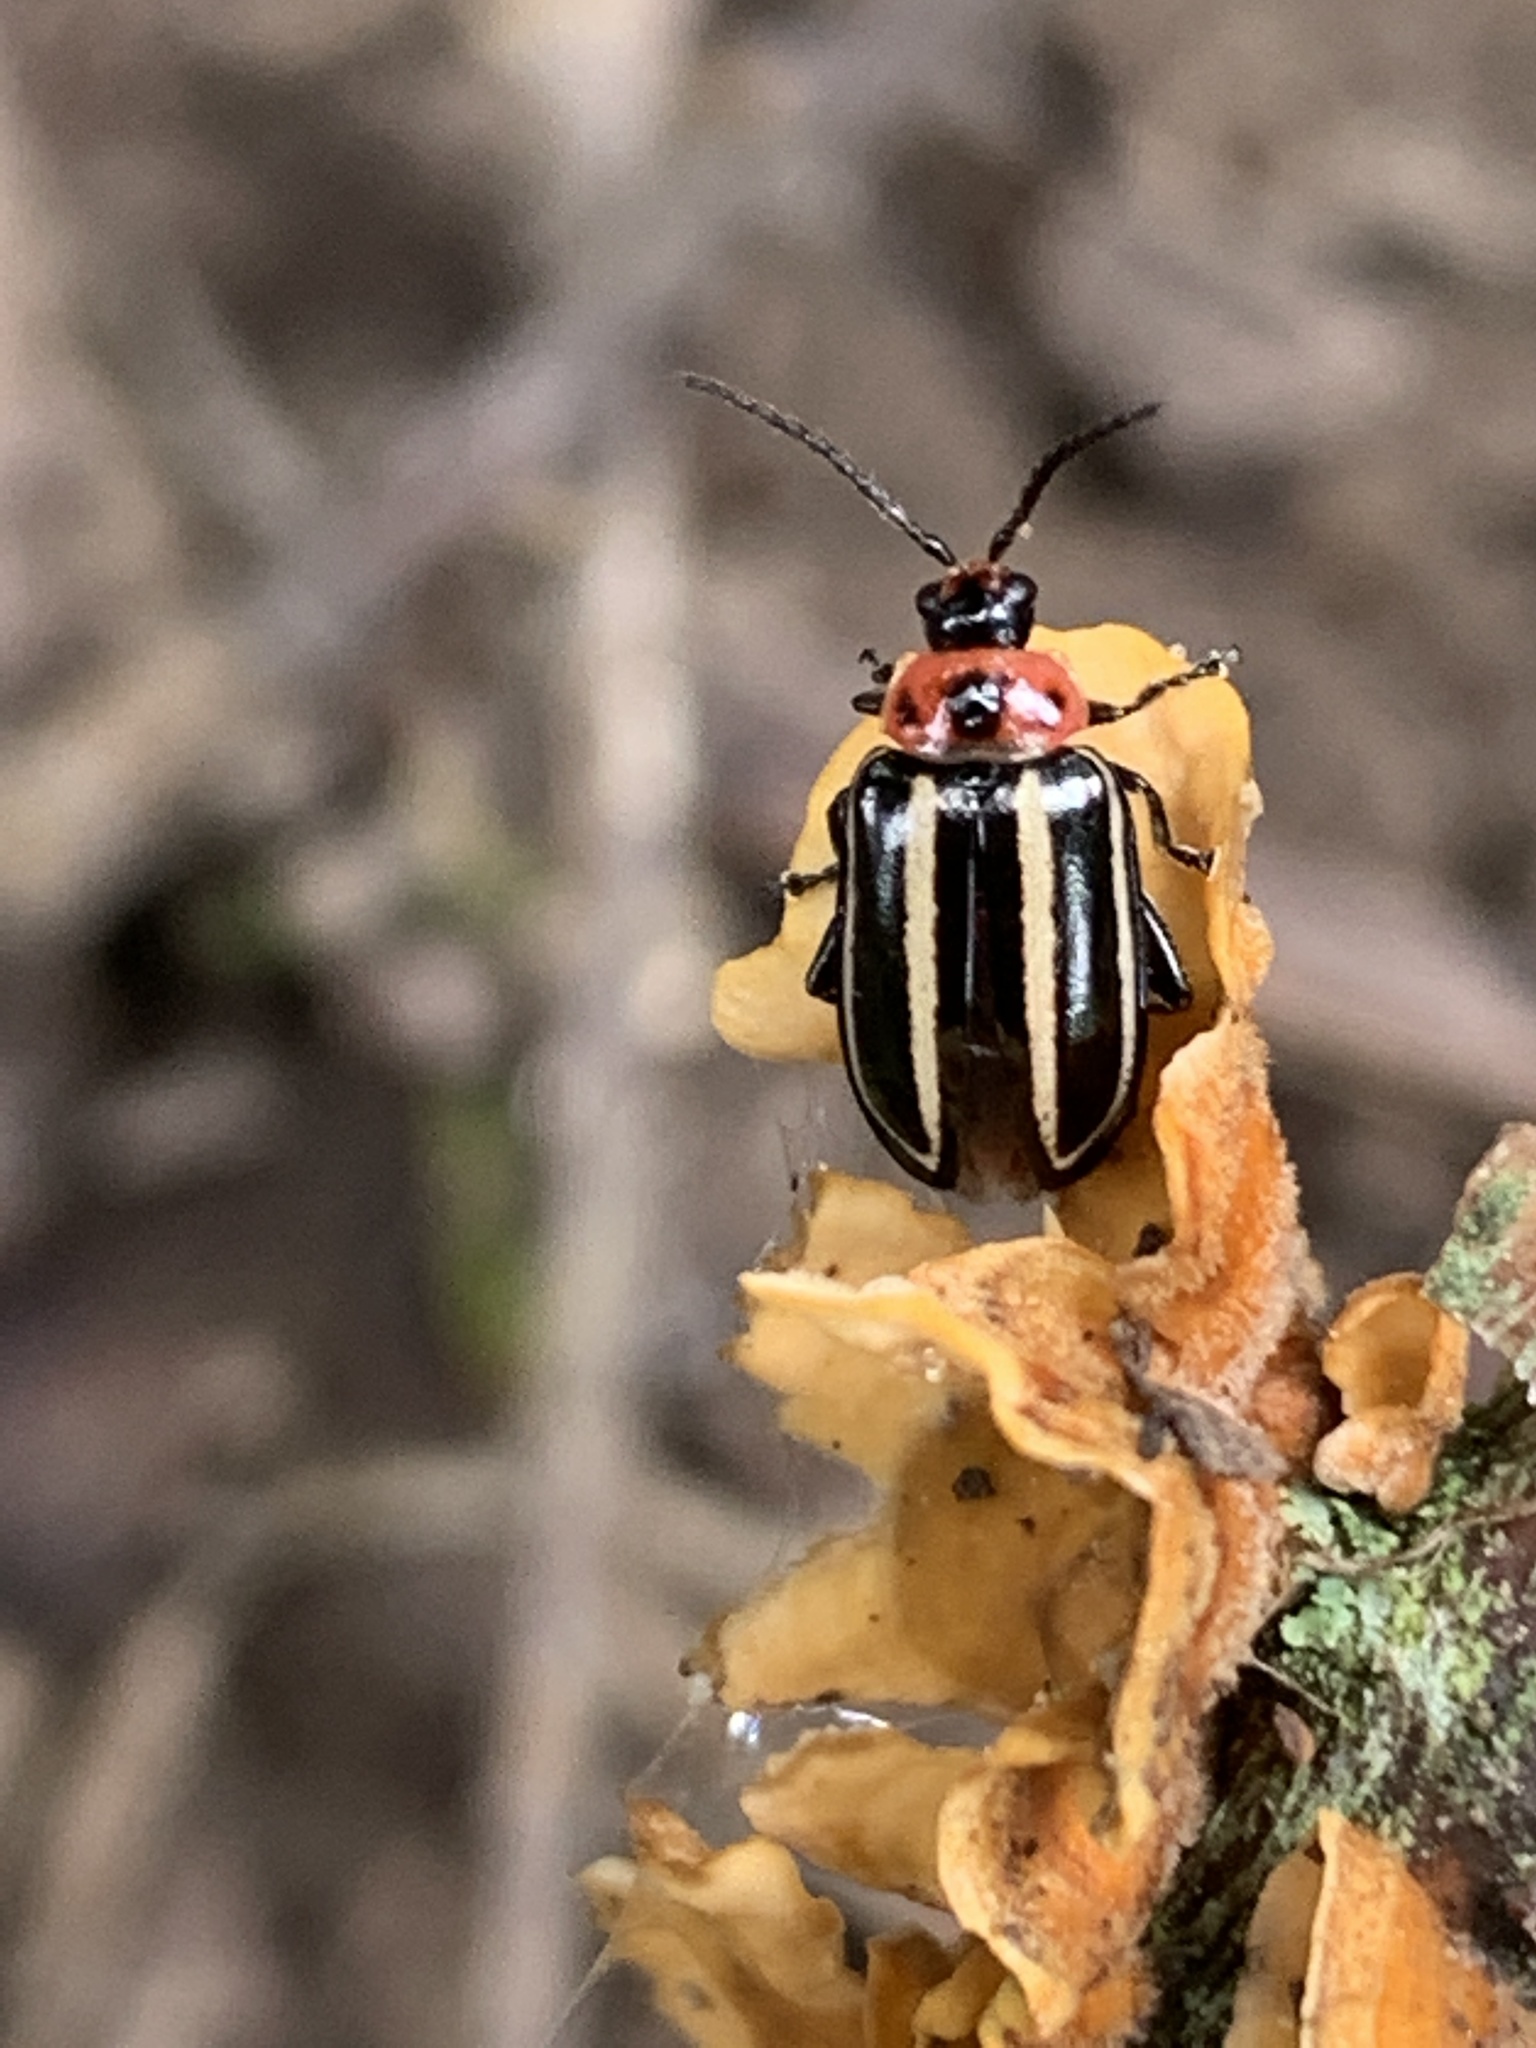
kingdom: Animalia
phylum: Arthropoda
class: Insecta
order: Coleoptera
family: Chrysomelidae
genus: Disonycha
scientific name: Disonycha glabrata
